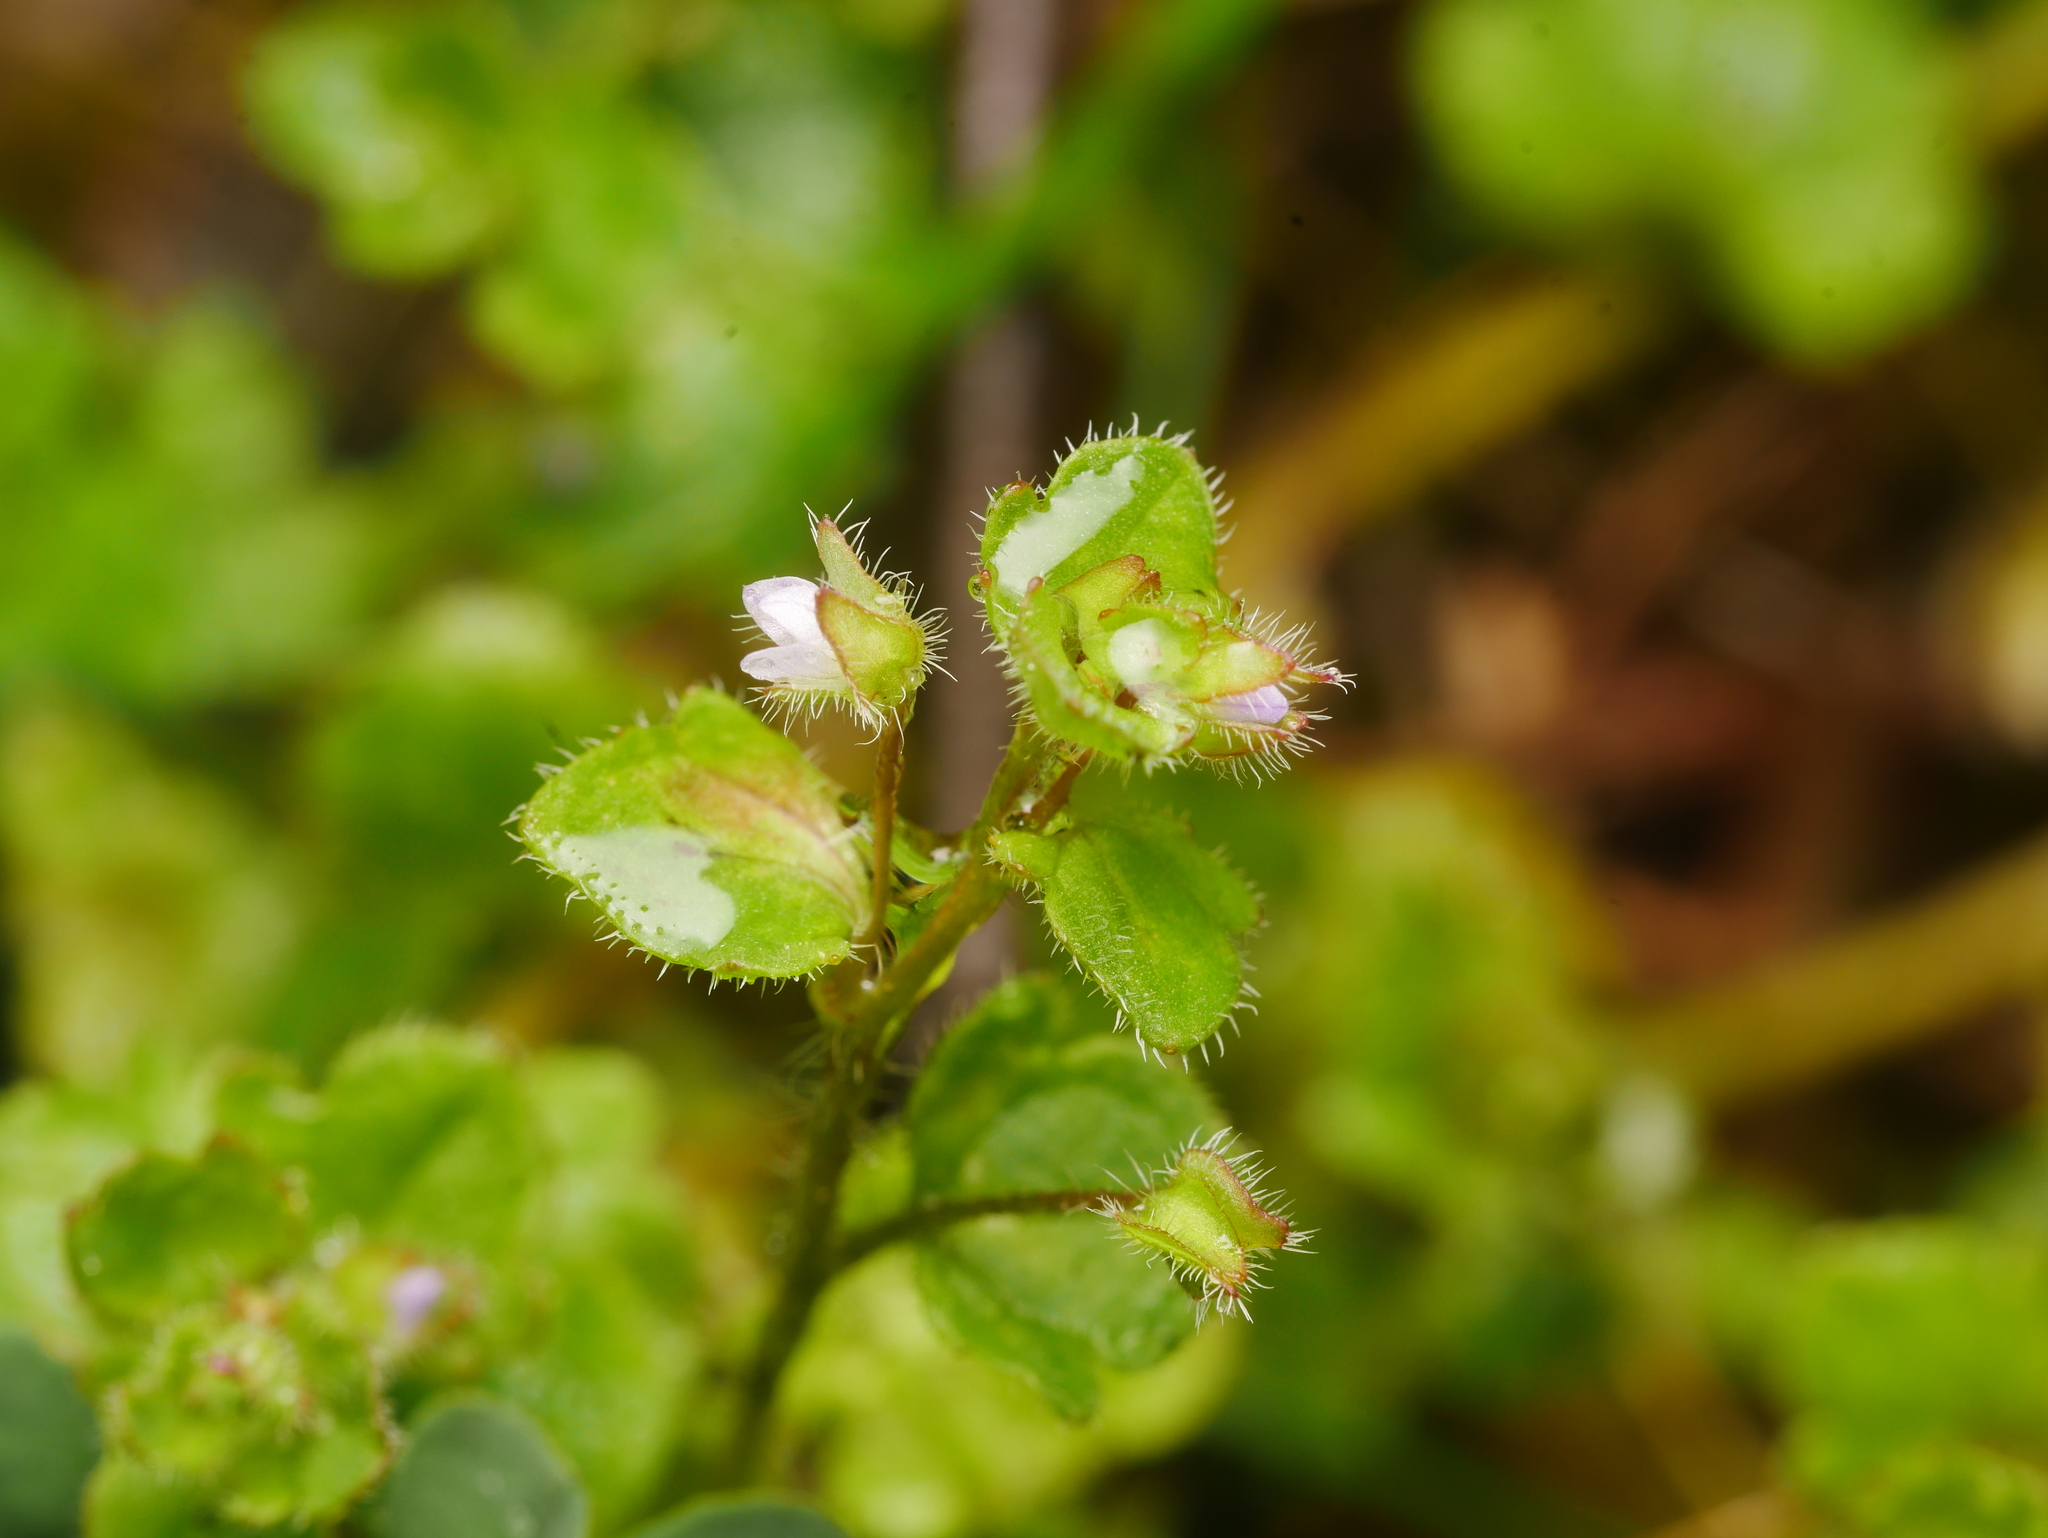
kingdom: Plantae
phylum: Tracheophyta
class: Magnoliopsida
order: Lamiales
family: Plantaginaceae
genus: Veronica
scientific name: Veronica sublobata
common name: False ivy-leaved speedwell
